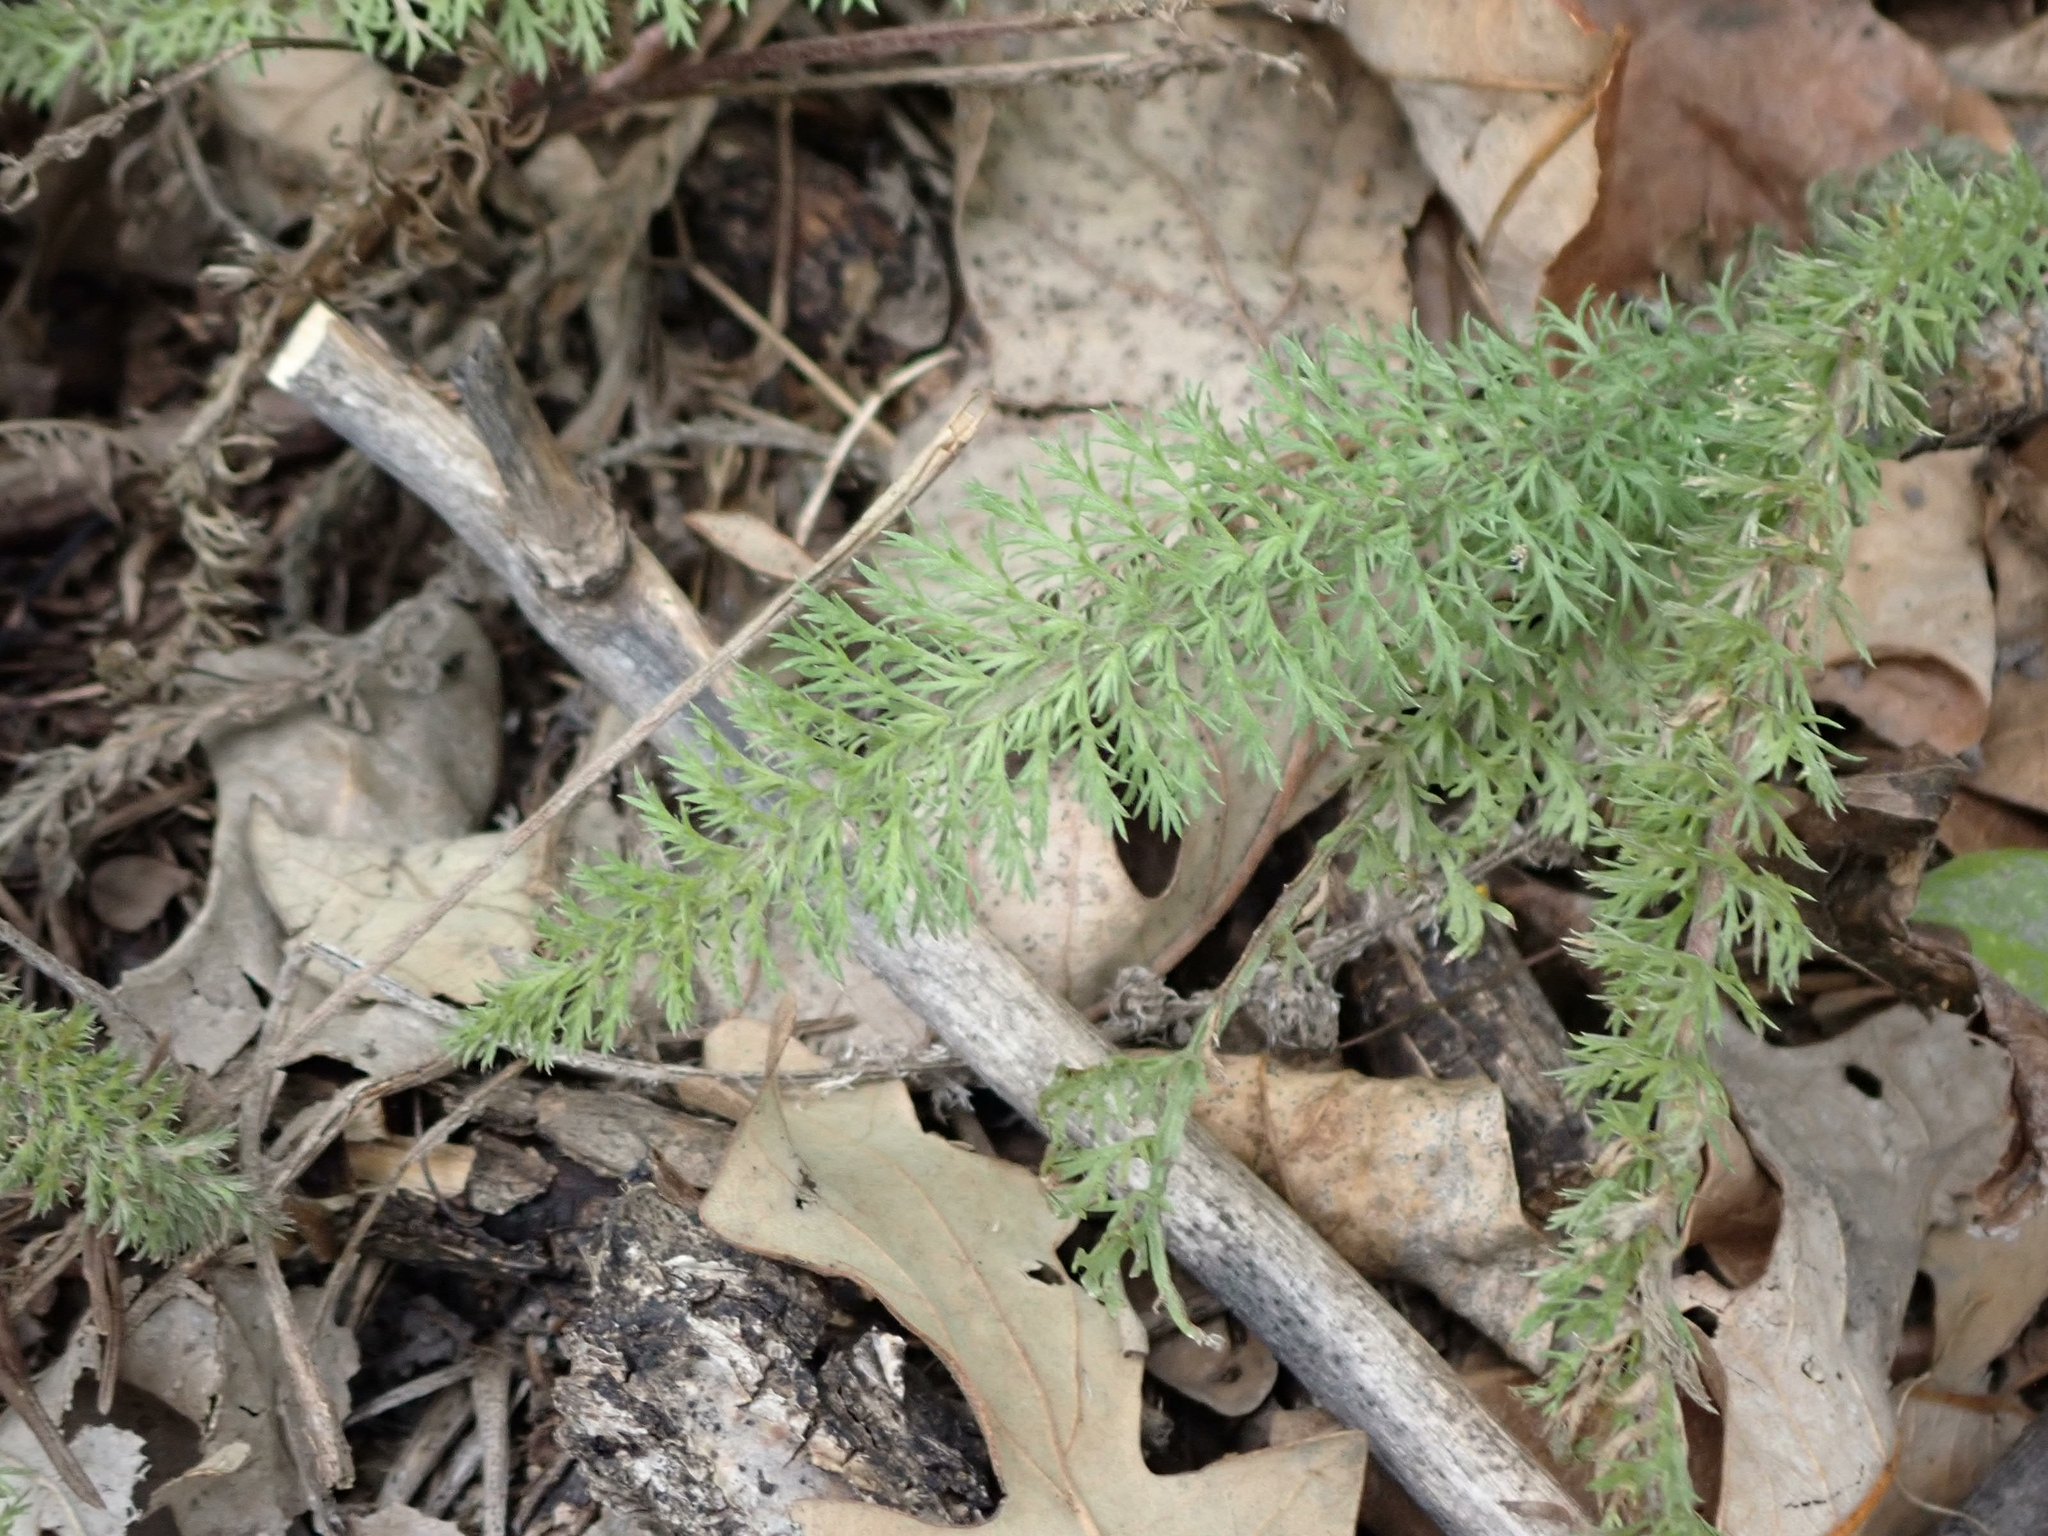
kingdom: Plantae
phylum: Tracheophyta
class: Magnoliopsida
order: Asterales
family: Asteraceae
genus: Achillea
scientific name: Achillea millefolium
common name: Yarrow
